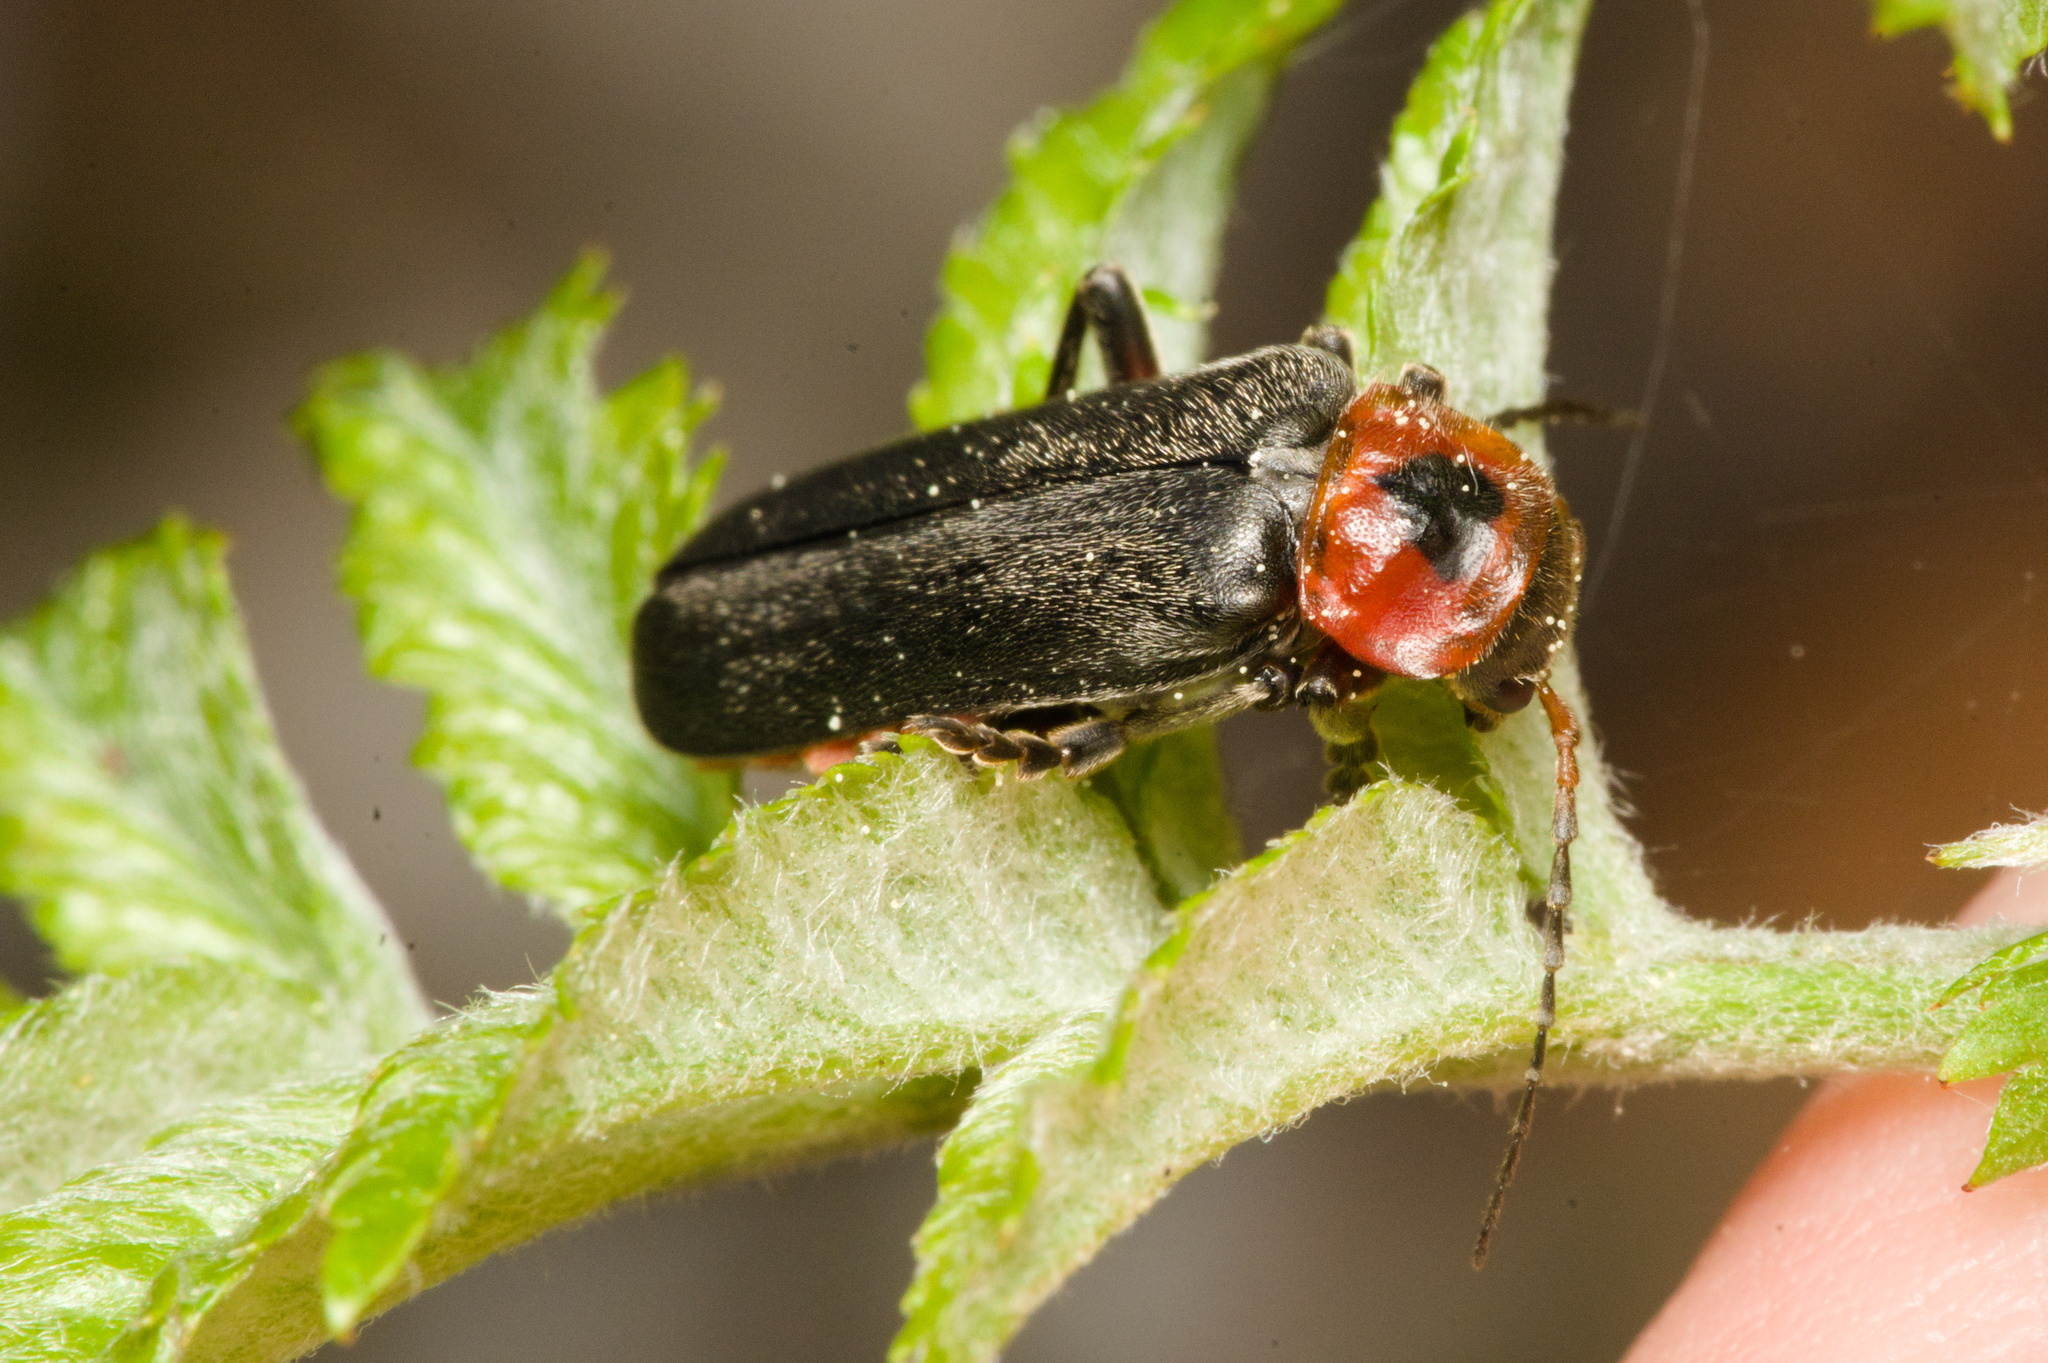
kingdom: Animalia
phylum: Arthropoda
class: Insecta
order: Coleoptera
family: Cantharidae
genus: Cantharis
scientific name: Cantharis rustica
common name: Soldier beetle
